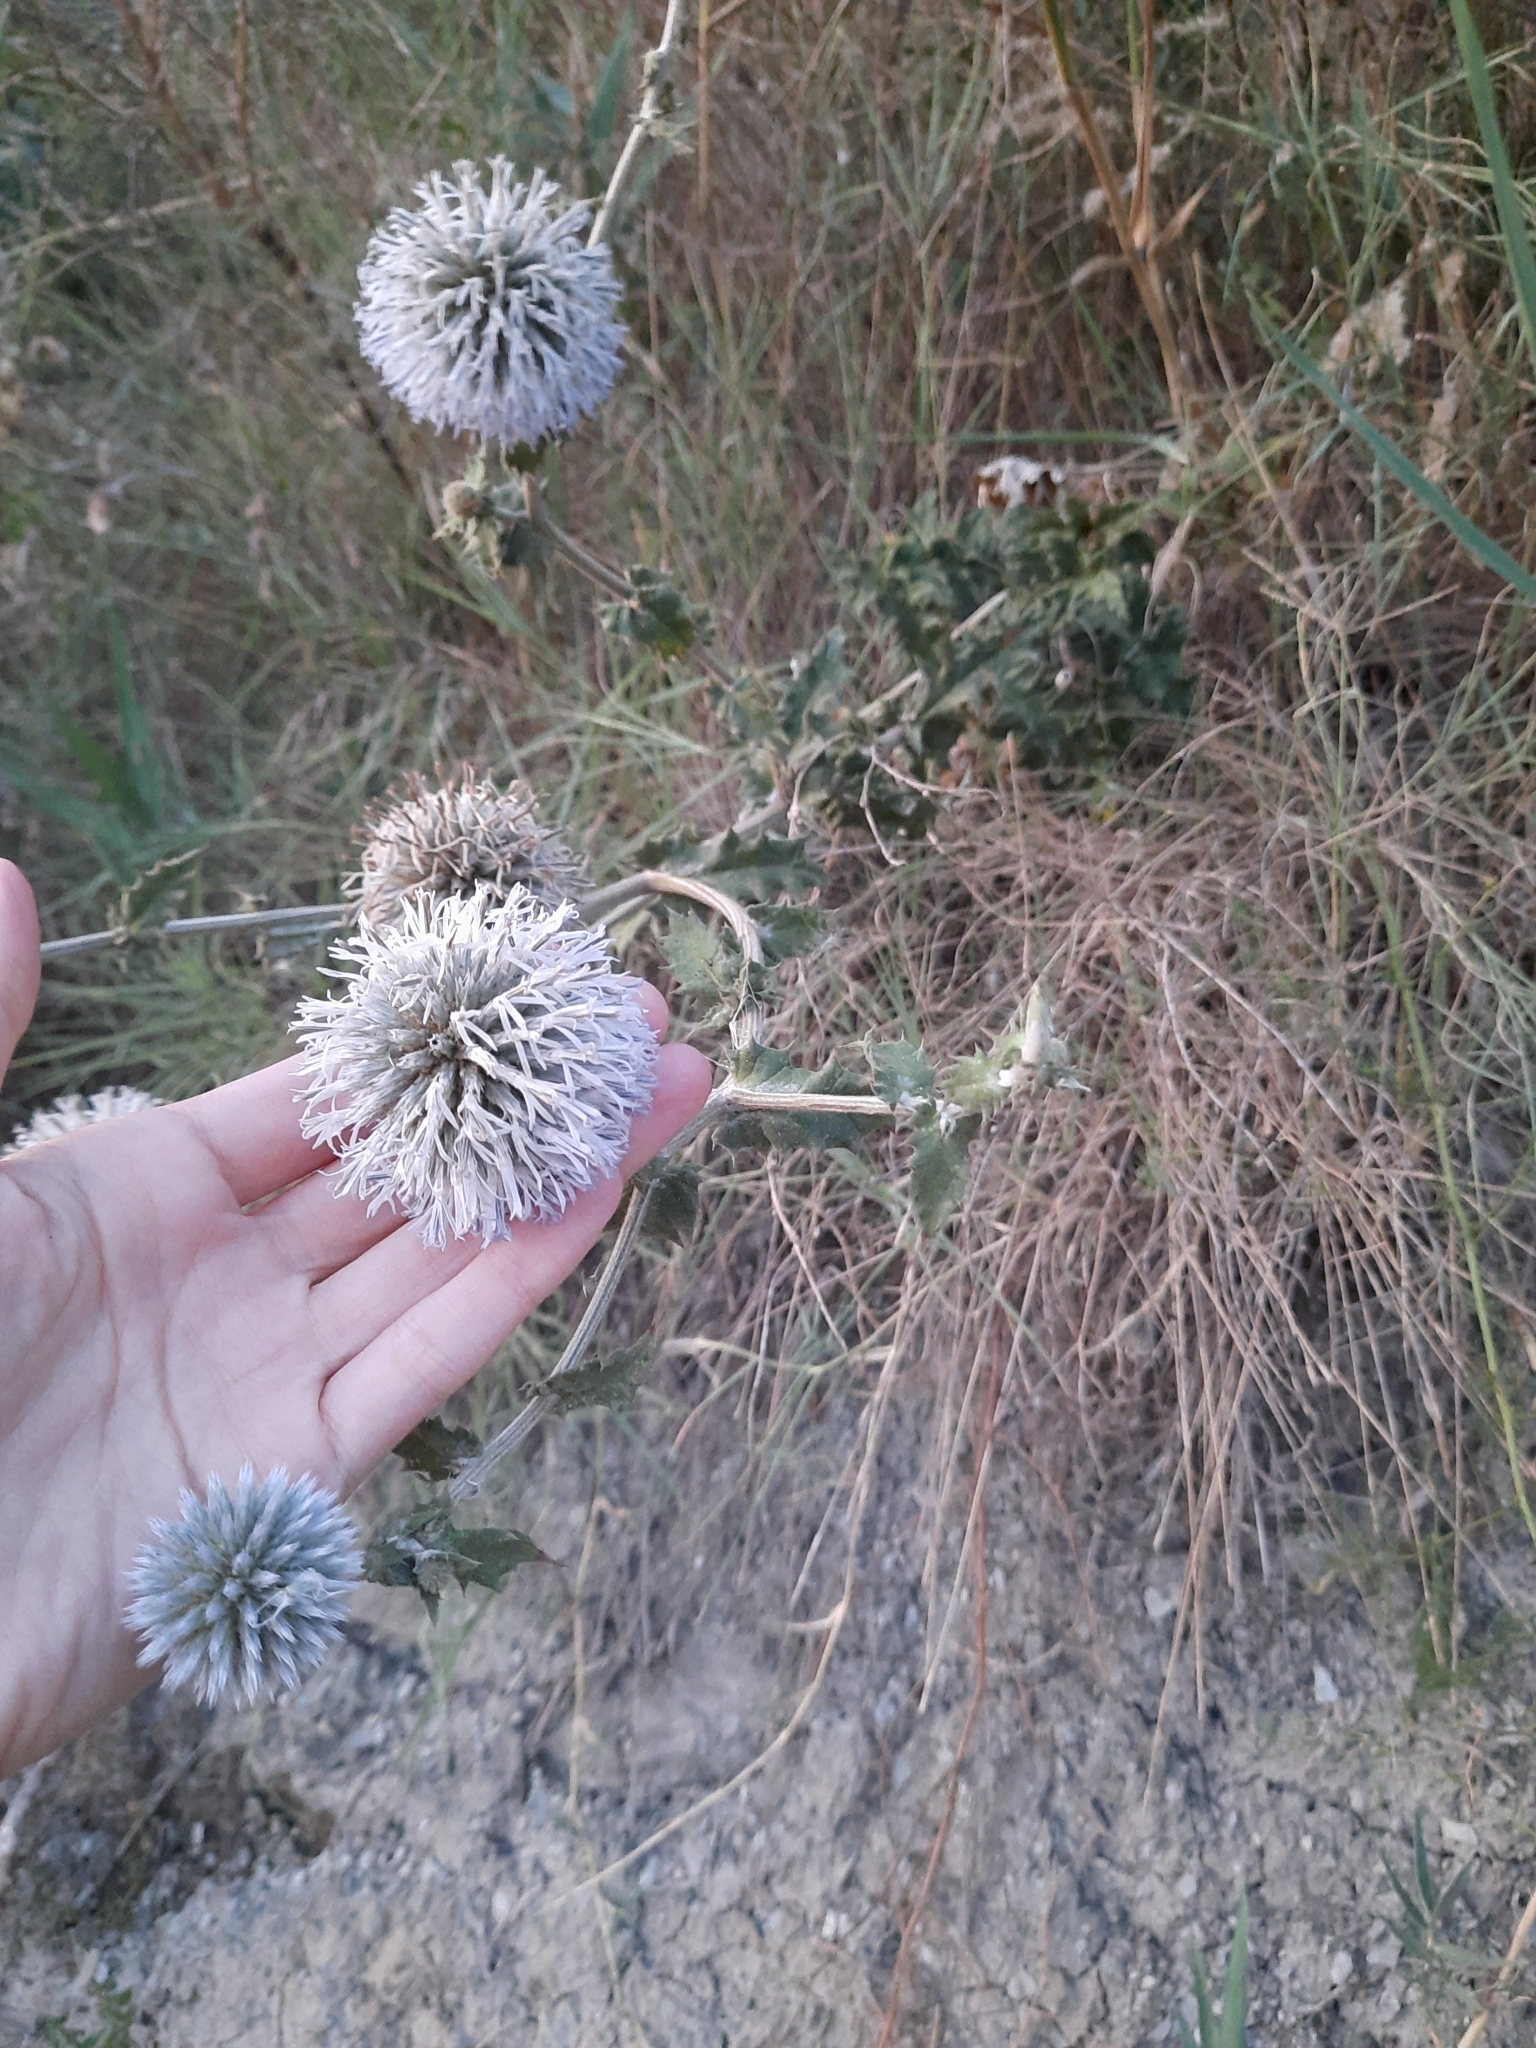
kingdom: Plantae
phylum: Tracheophyta
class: Magnoliopsida
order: Asterales
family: Asteraceae
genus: Echinops
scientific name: Echinops sphaerocephalus
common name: Glandular globe-thistle
